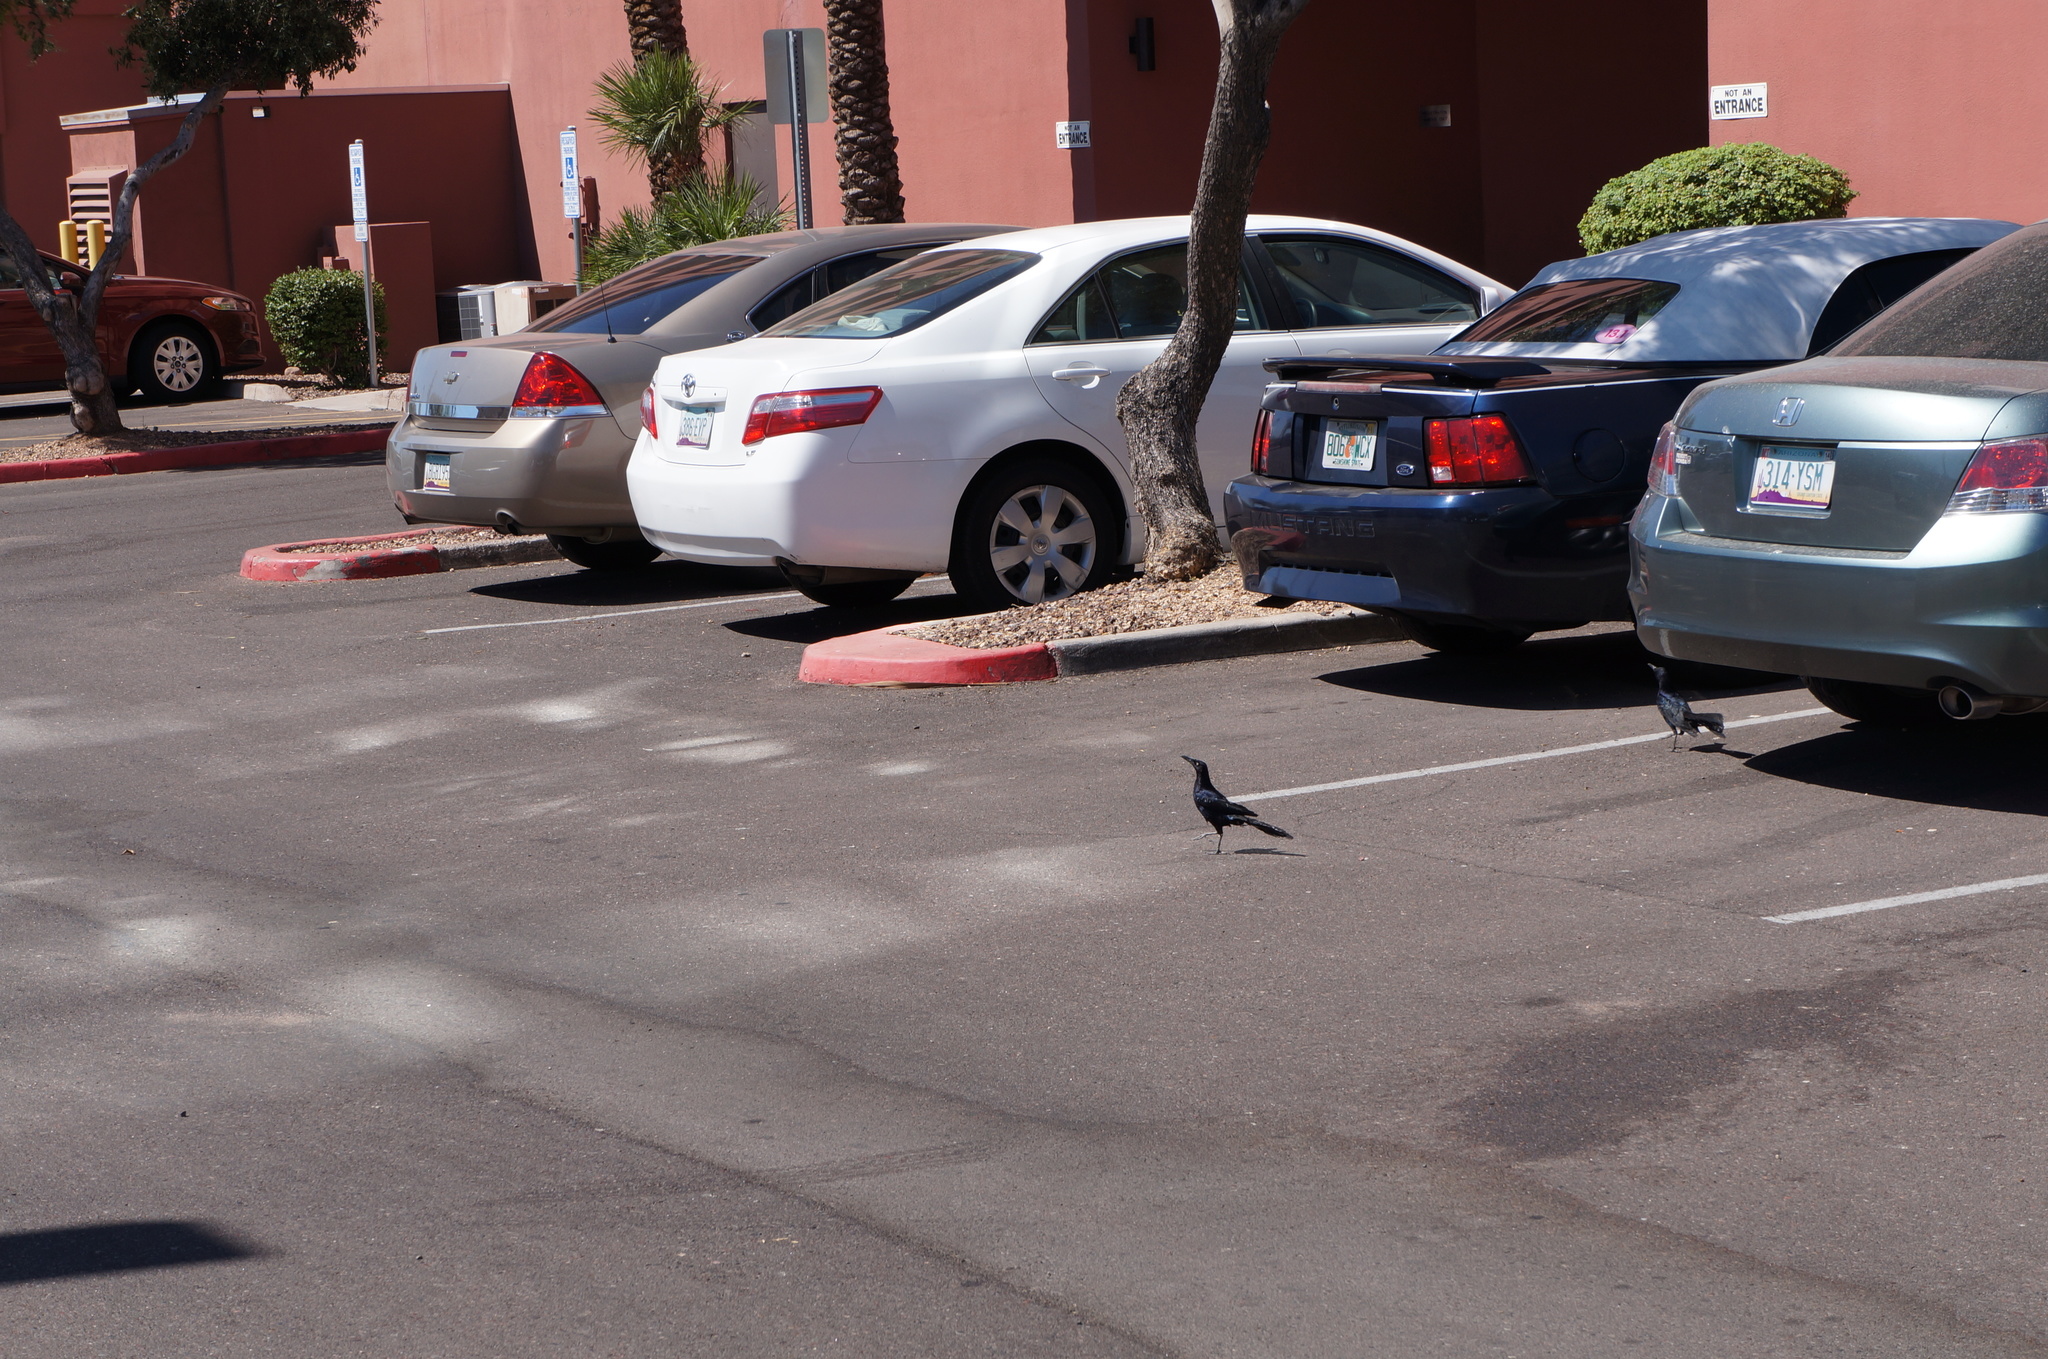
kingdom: Animalia
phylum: Chordata
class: Aves
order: Passeriformes
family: Icteridae
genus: Quiscalus
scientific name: Quiscalus mexicanus
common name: Great-tailed grackle
